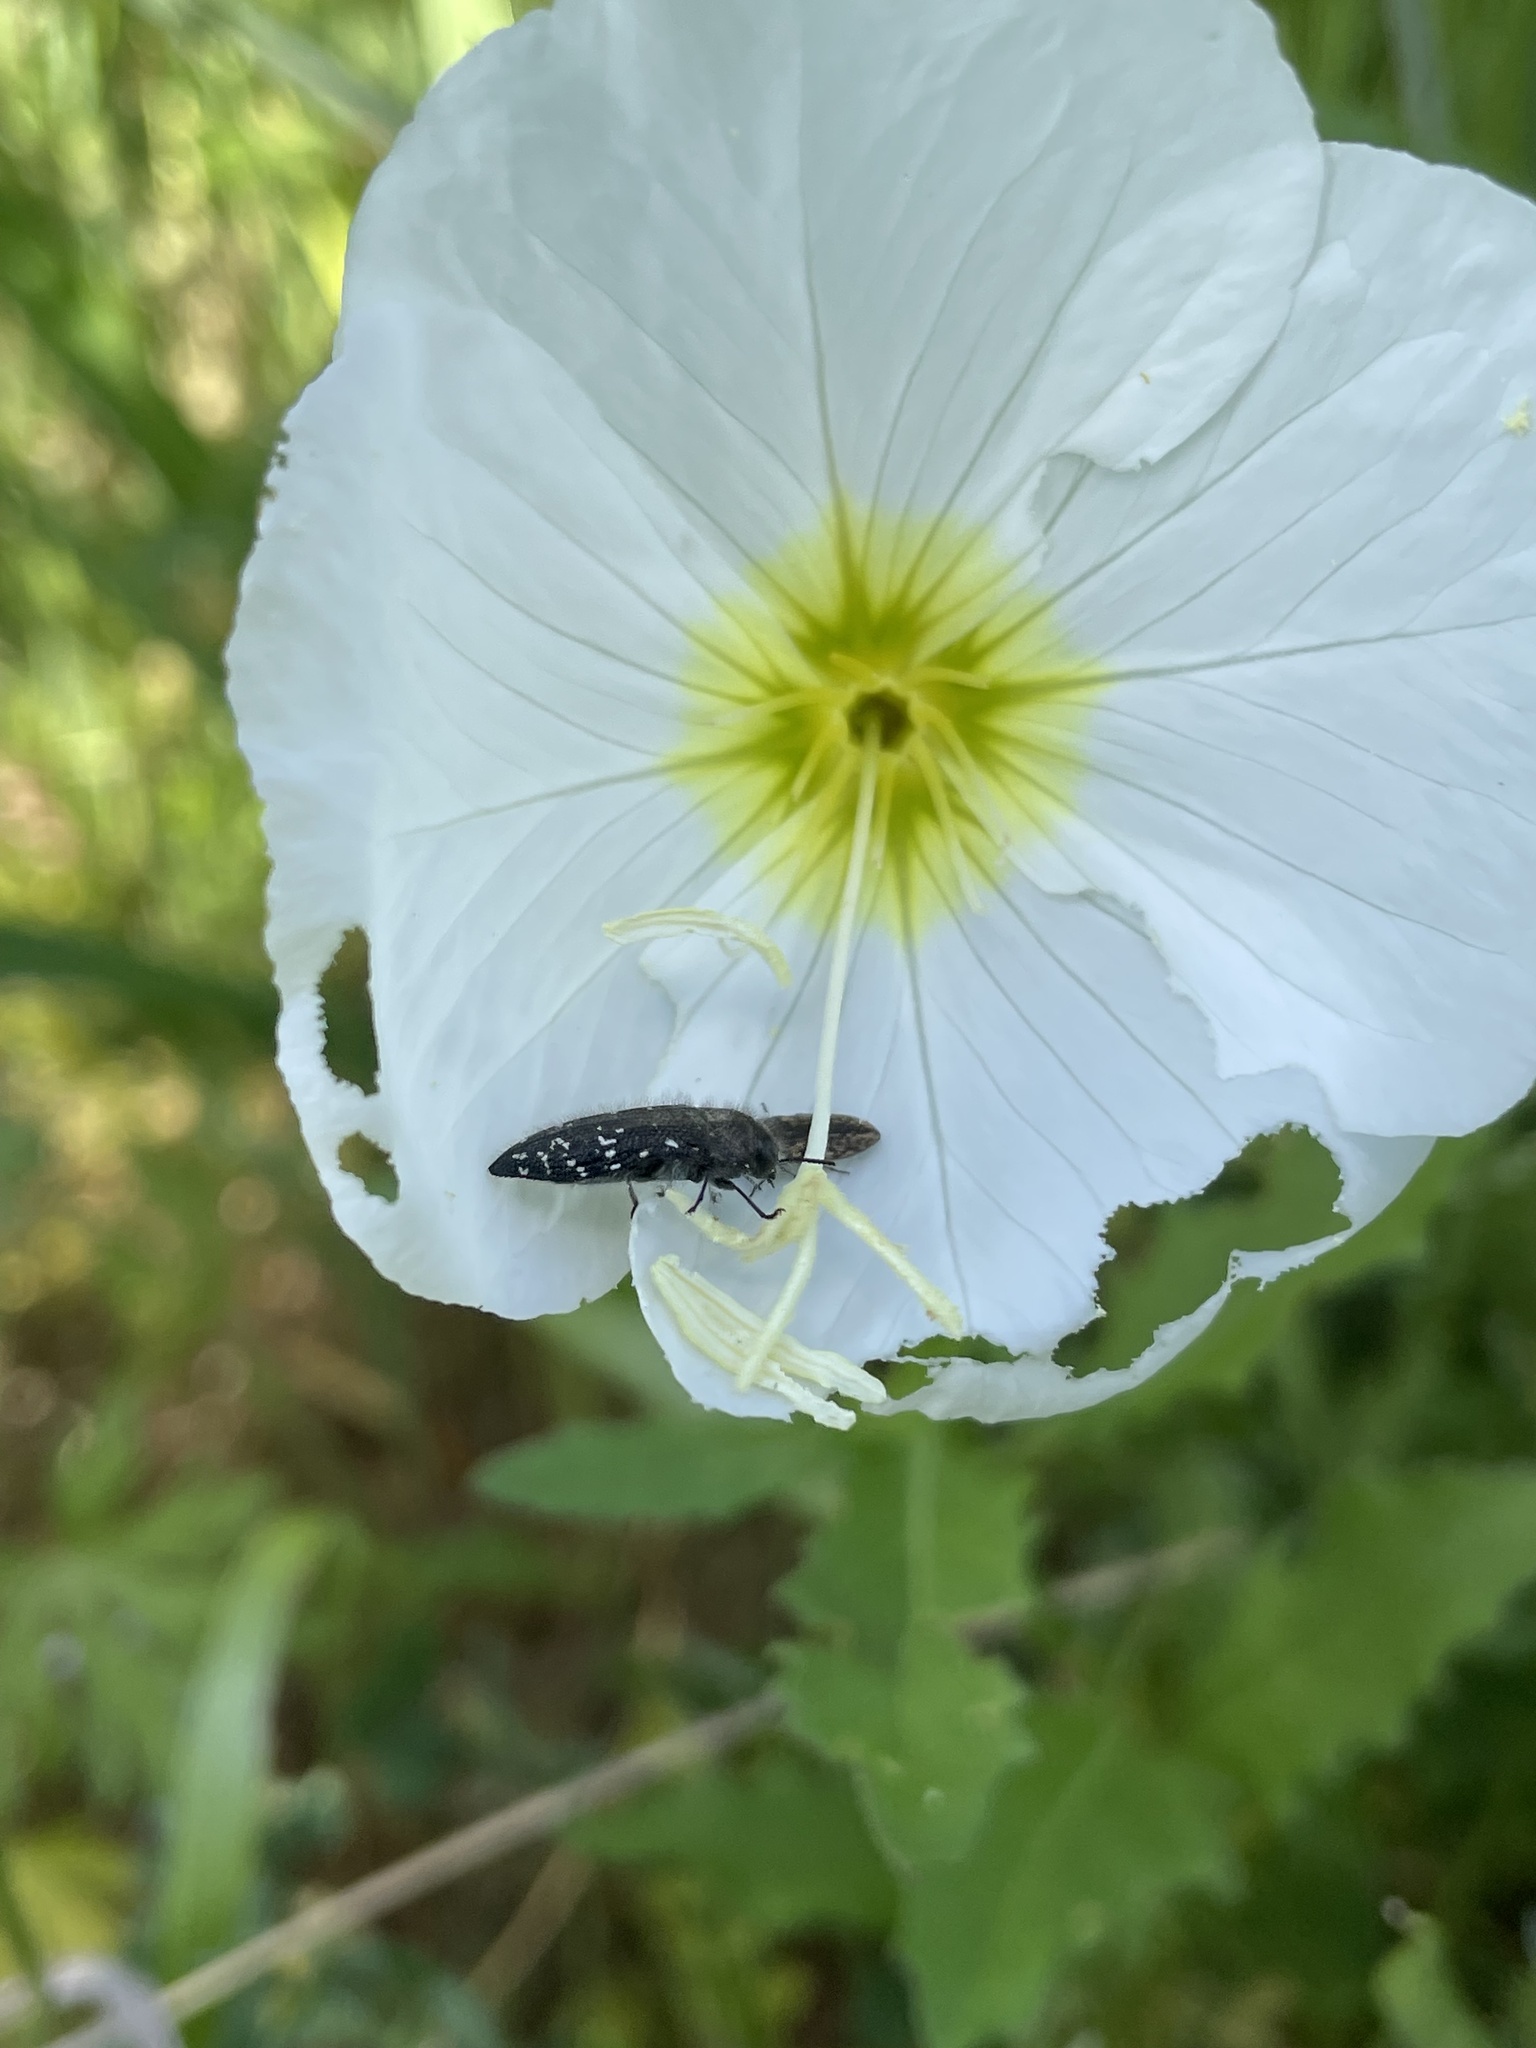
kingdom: Animalia
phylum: Arthropoda
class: Insecta
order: Coleoptera
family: Buprestidae
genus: Acmaeodera
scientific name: Acmaeodera ornatoides
